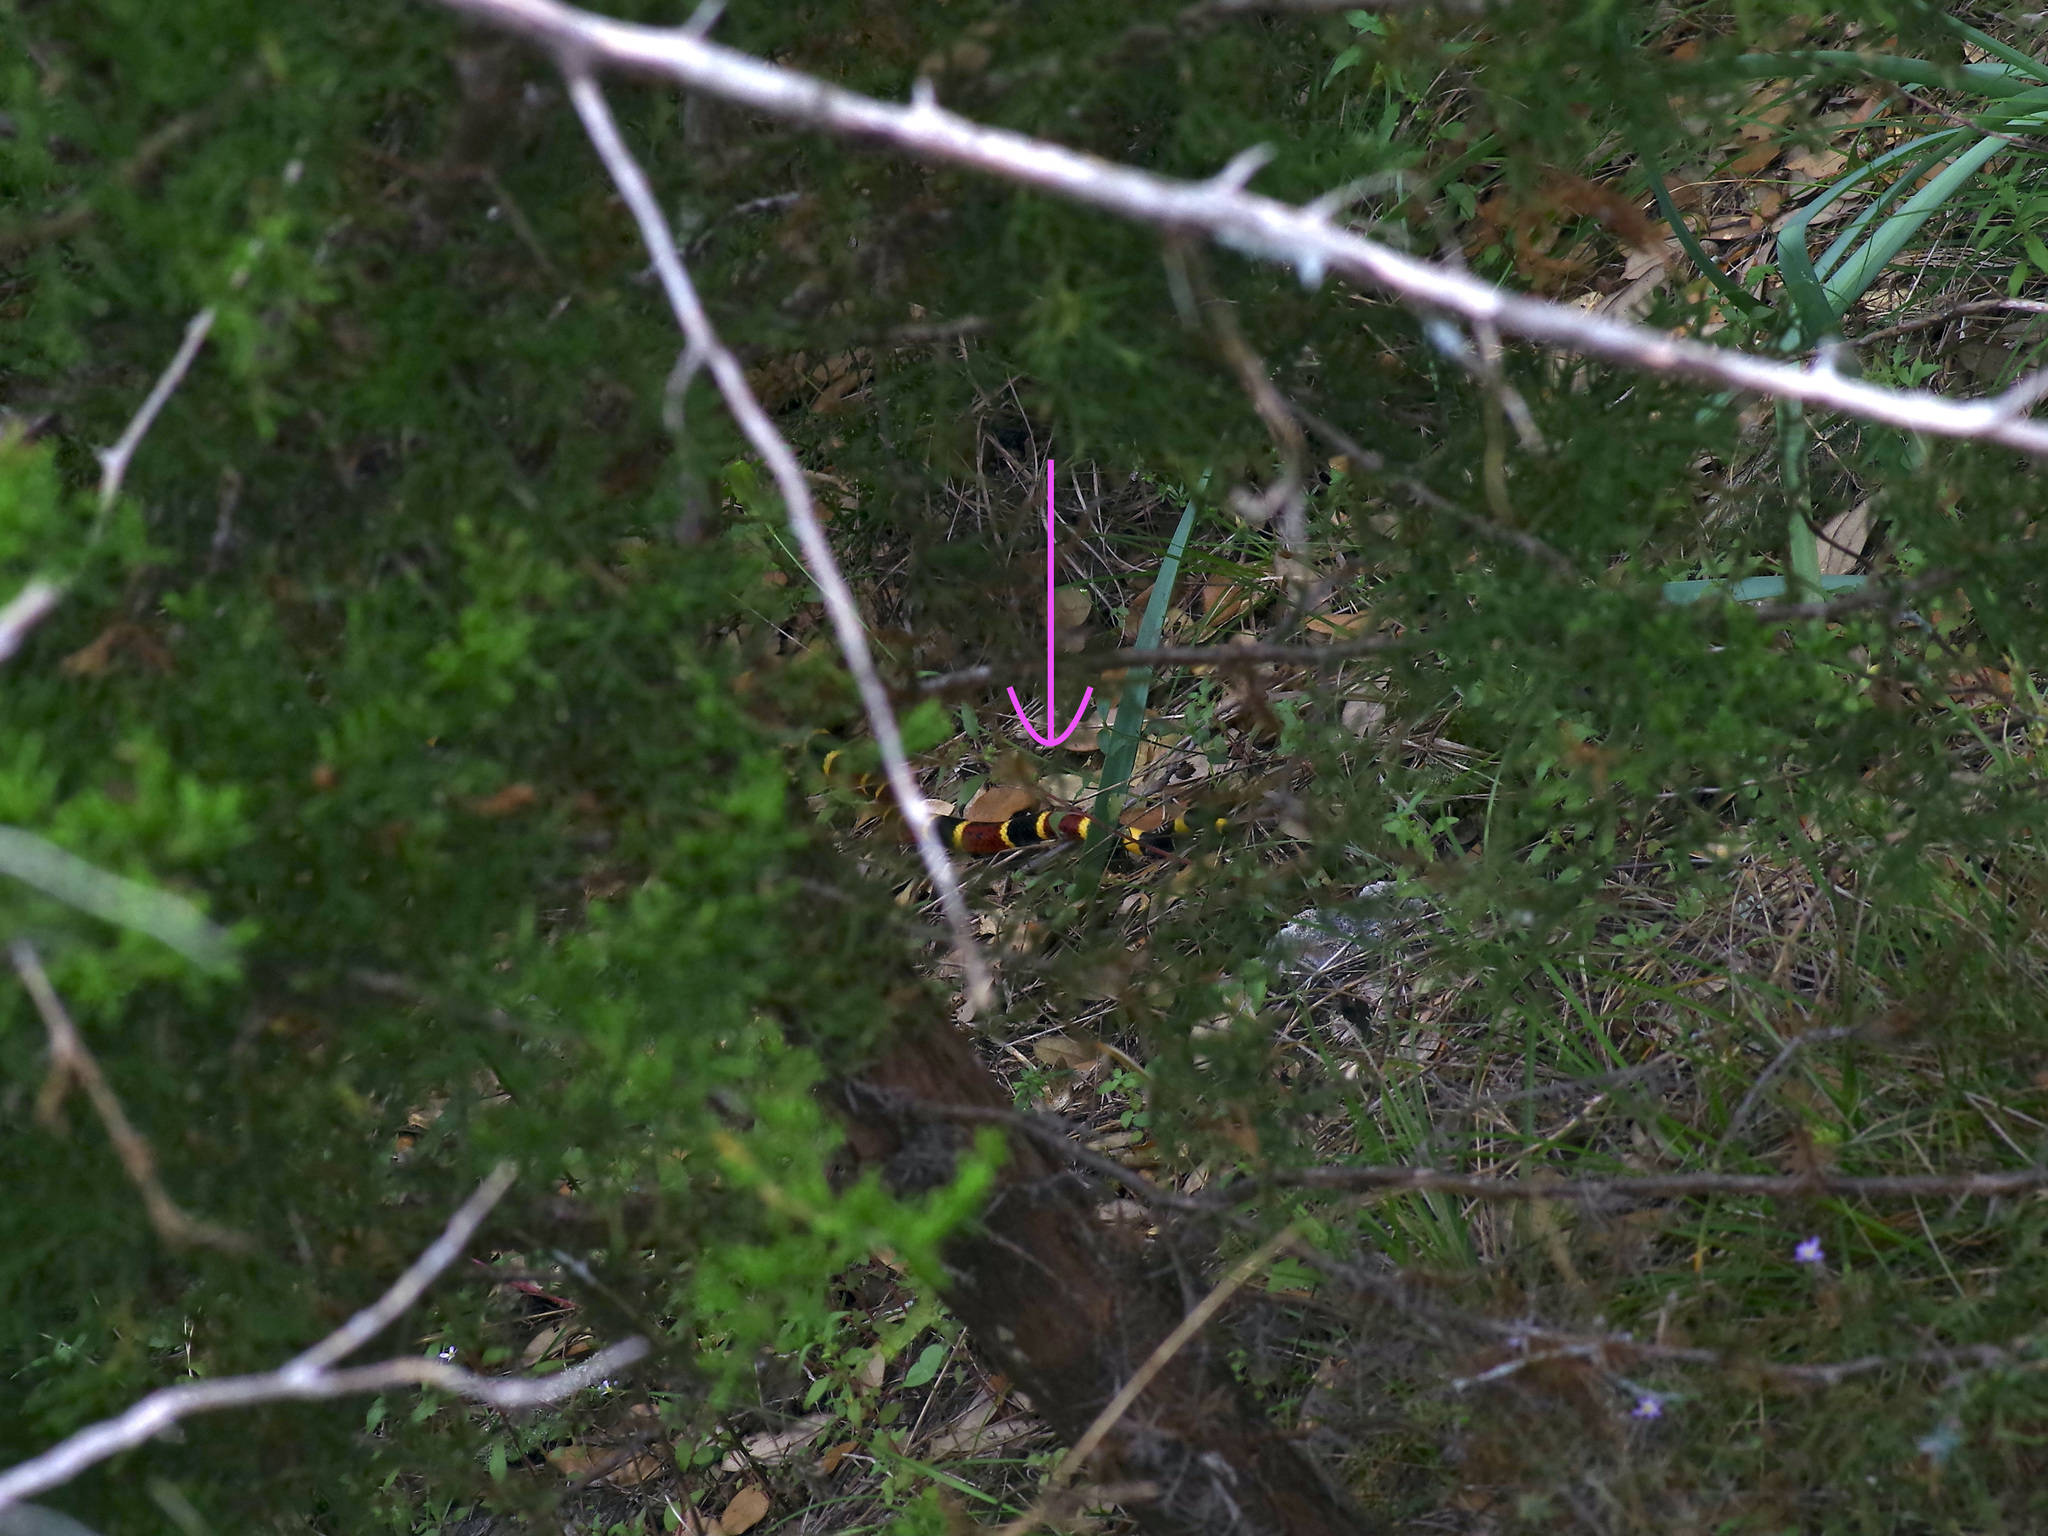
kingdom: Animalia
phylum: Chordata
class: Squamata
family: Elapidae
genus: Micrurus
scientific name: Micrurus tener
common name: Texas coral snake
